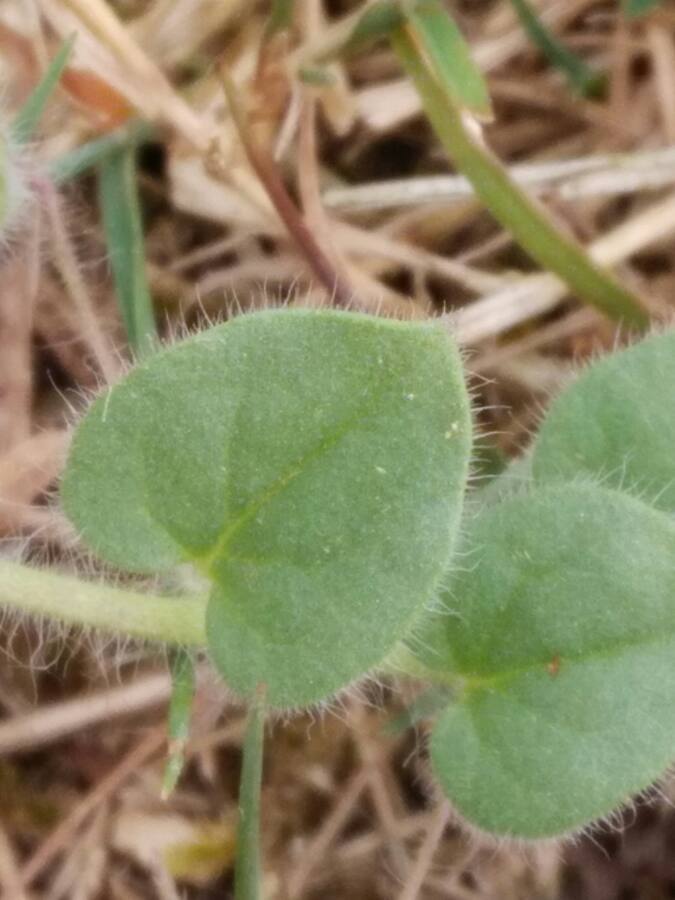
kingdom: Plantae
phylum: Tracheophyta
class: Magnoliopsida
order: Lamiales
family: Plantaginaceae
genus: Kickxia
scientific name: Kickxia spuria
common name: Round-leaved fluellen
